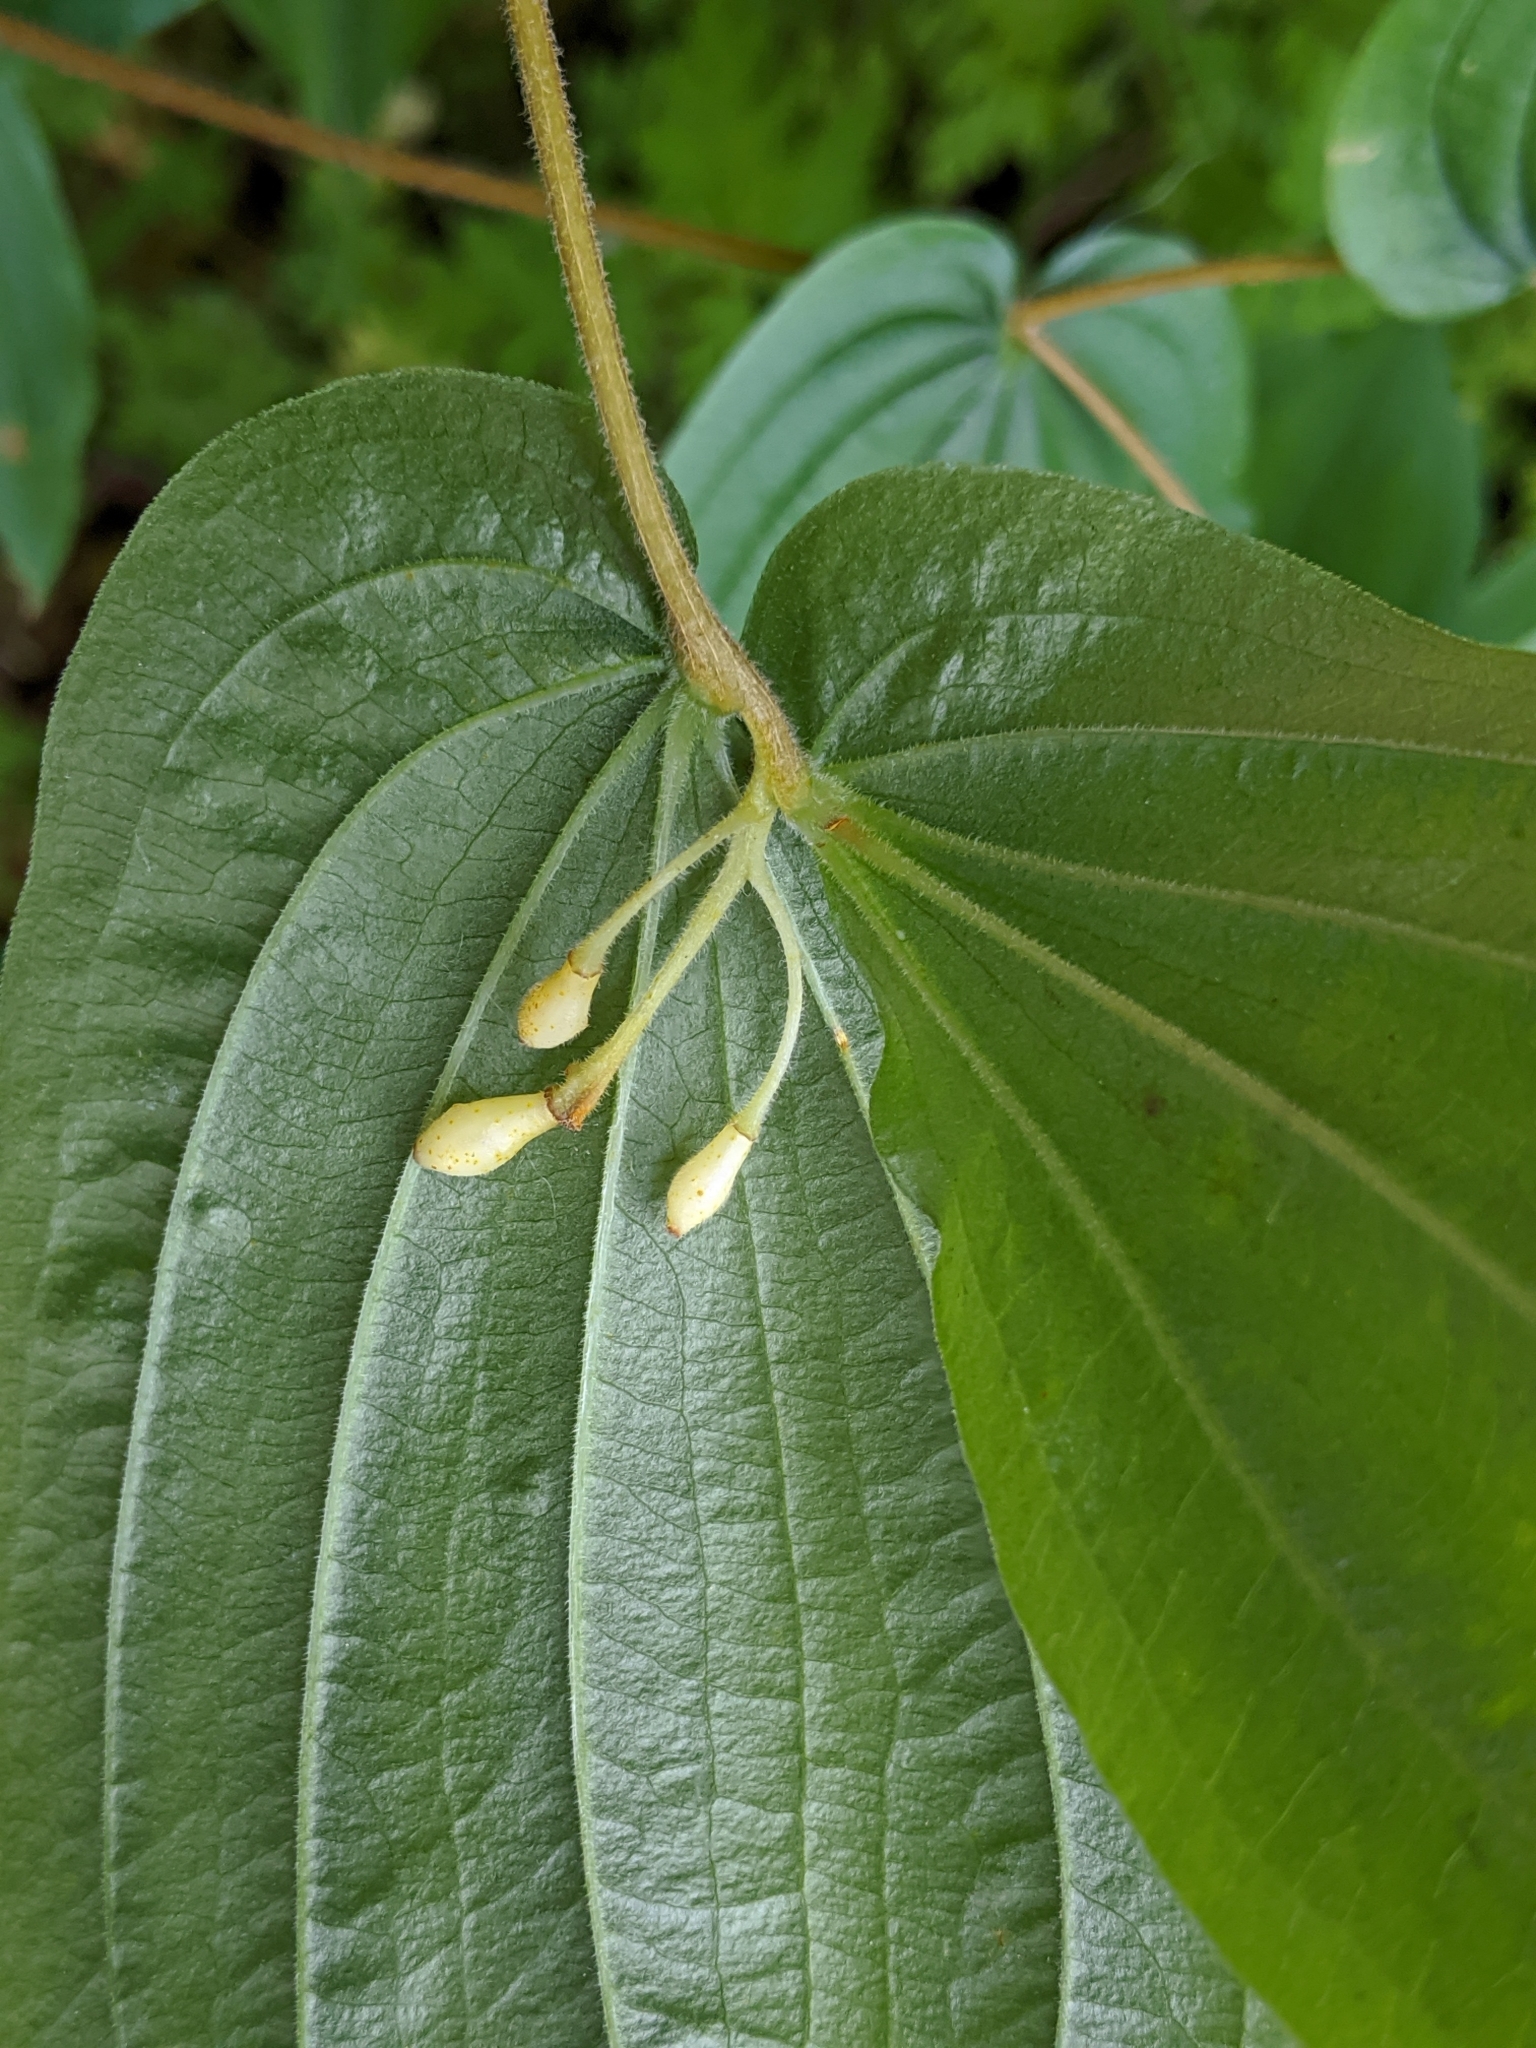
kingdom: Plantae
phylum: Tracheophyta
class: Liliopsida
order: Liliales
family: Liliaceae
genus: Prosartes
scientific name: Prosartes hookeri
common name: Fairy-bells
